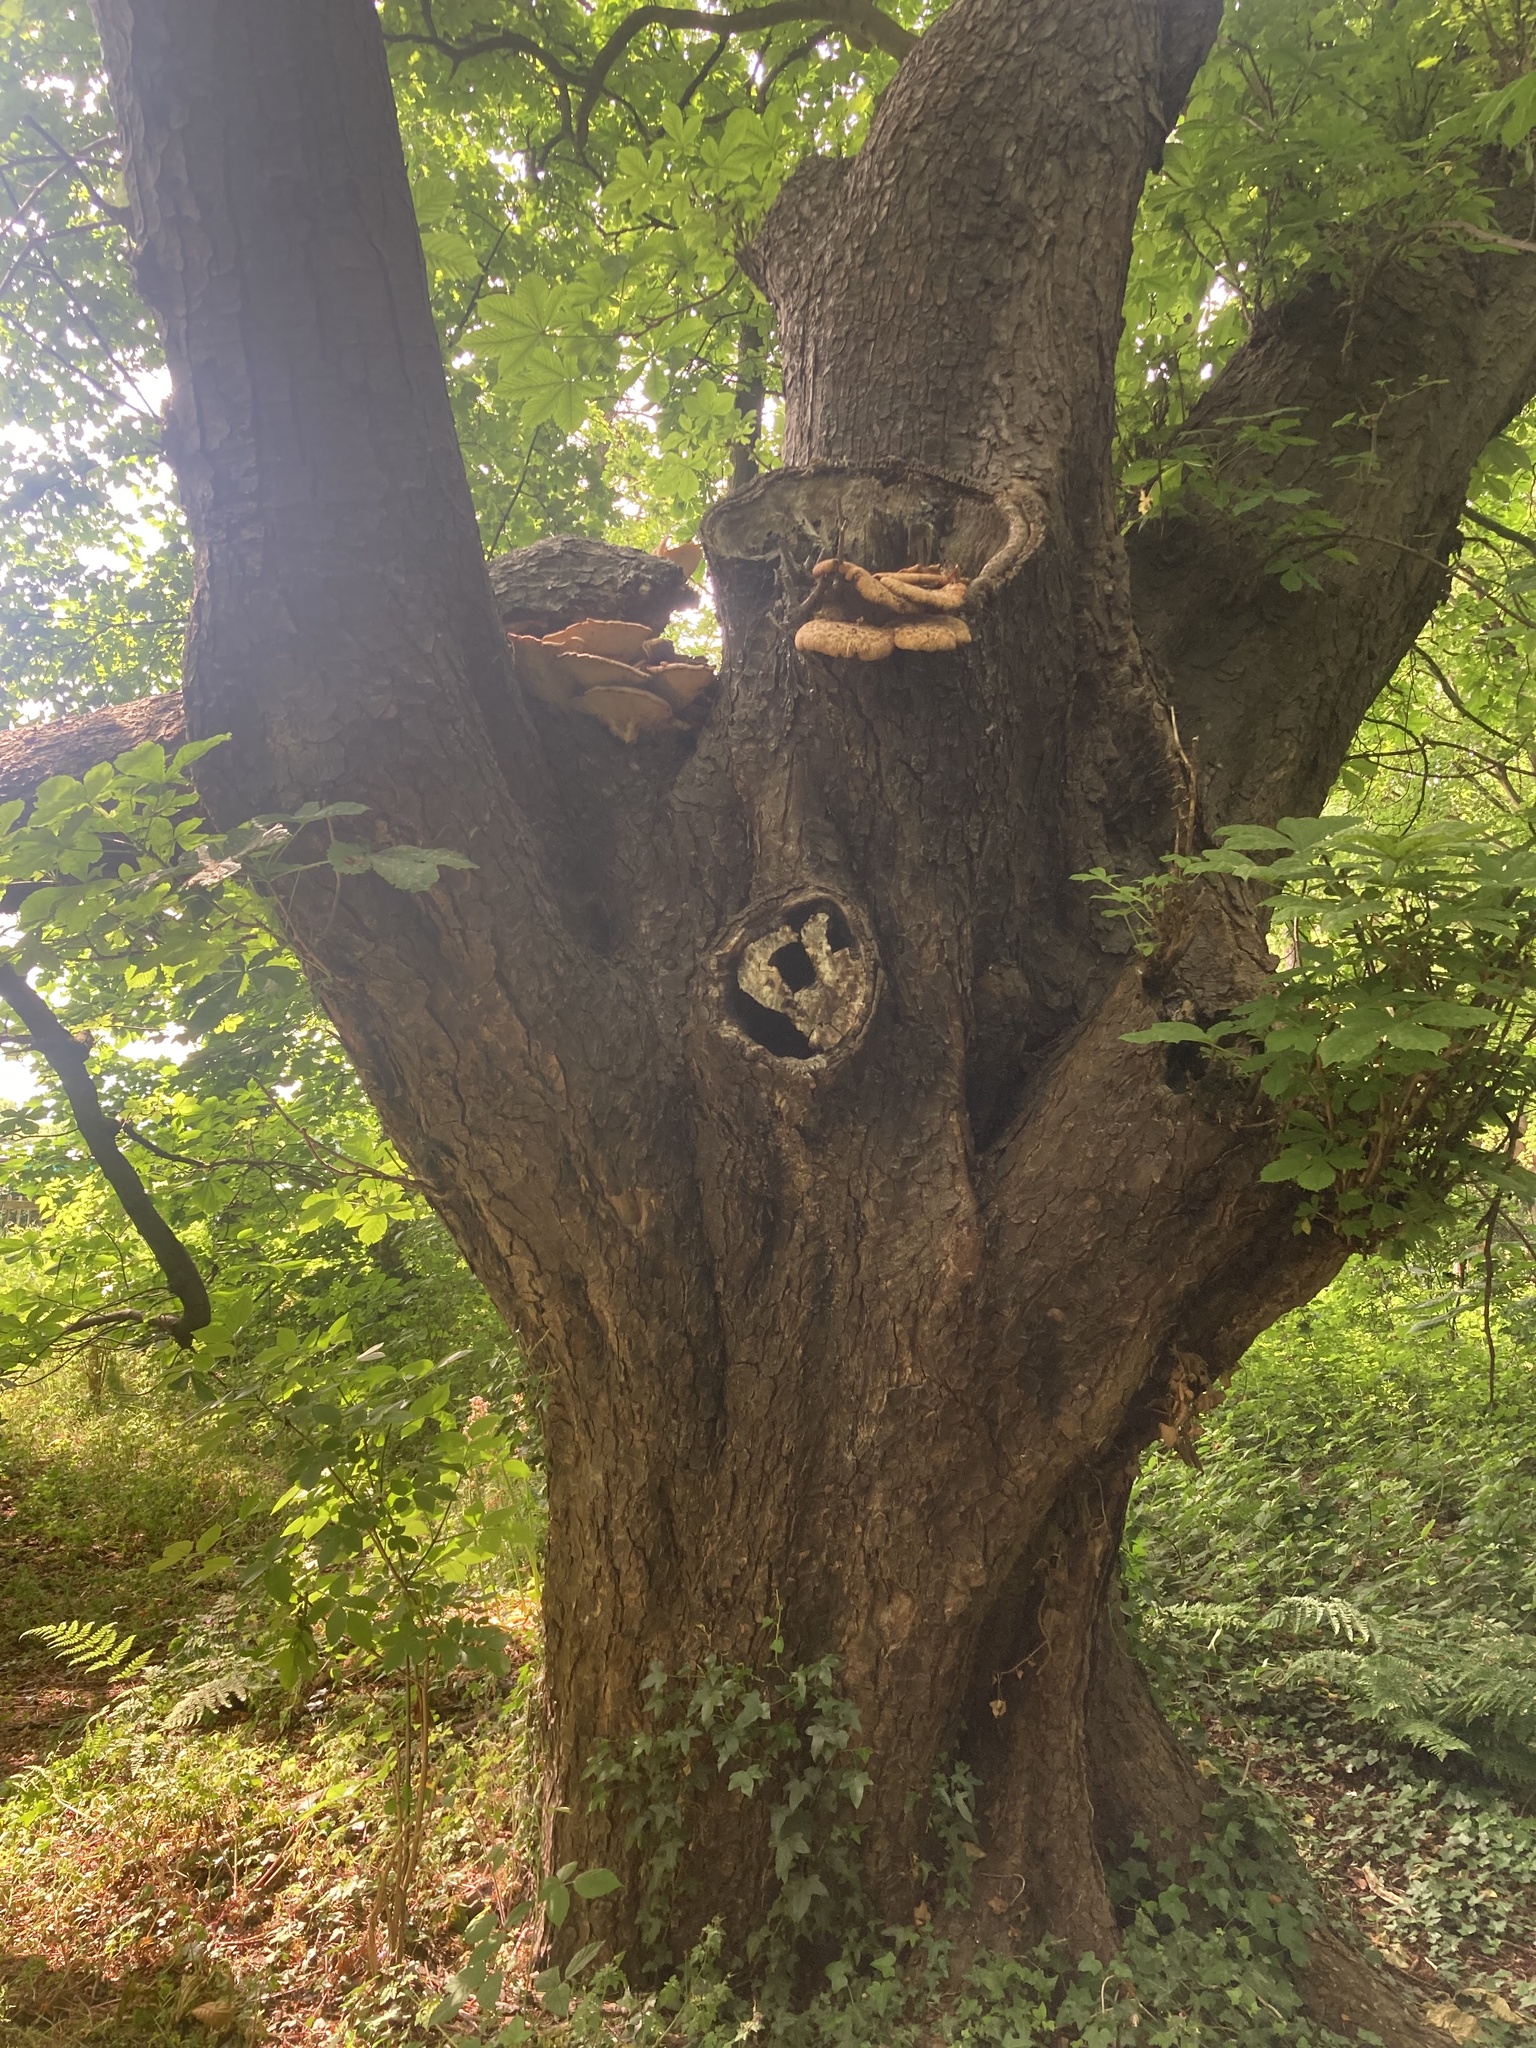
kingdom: Fungi
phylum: Basidiomycota
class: Agaricomycetes
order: Polyporales
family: Polyporaceae
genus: Cerioporus
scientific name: Cerioporus squamosus
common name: Dryad's saddle
